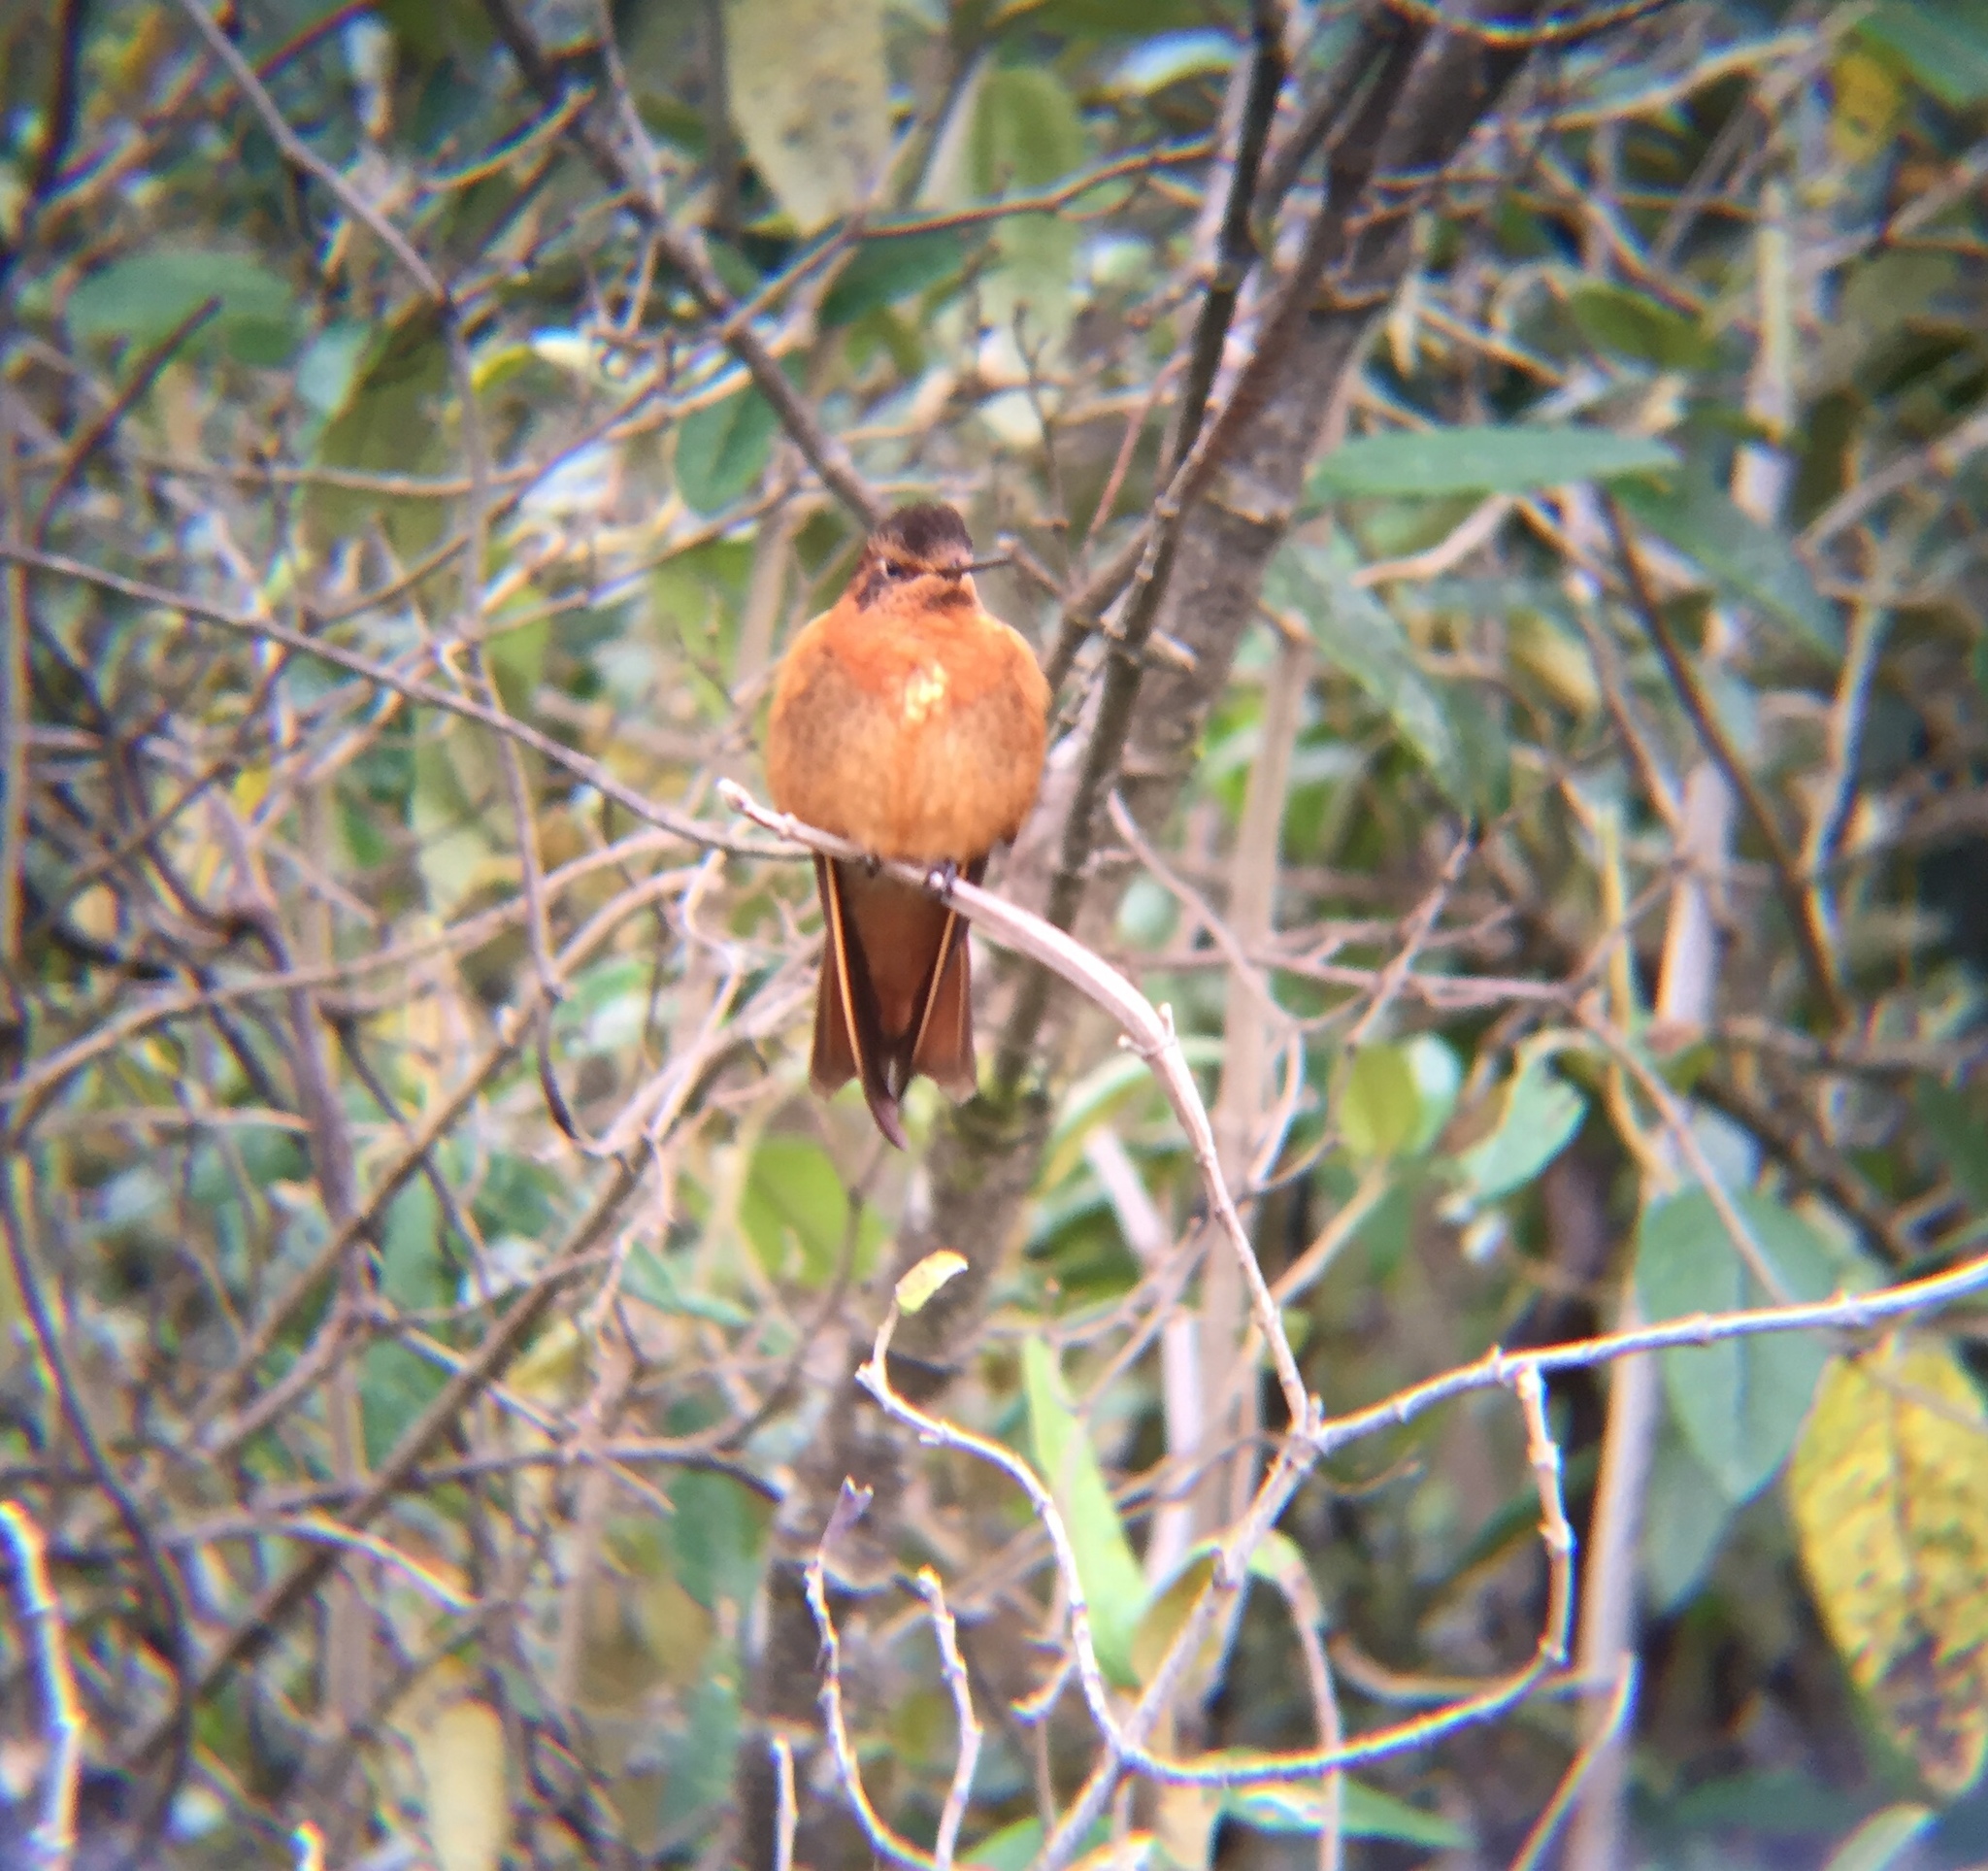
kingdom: Animalia
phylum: Chordata
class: Aves
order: Apodiformes
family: Trochilidae
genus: Aglaeactis
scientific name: Aglaeactis cupripennis
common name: Shining sunbeam
